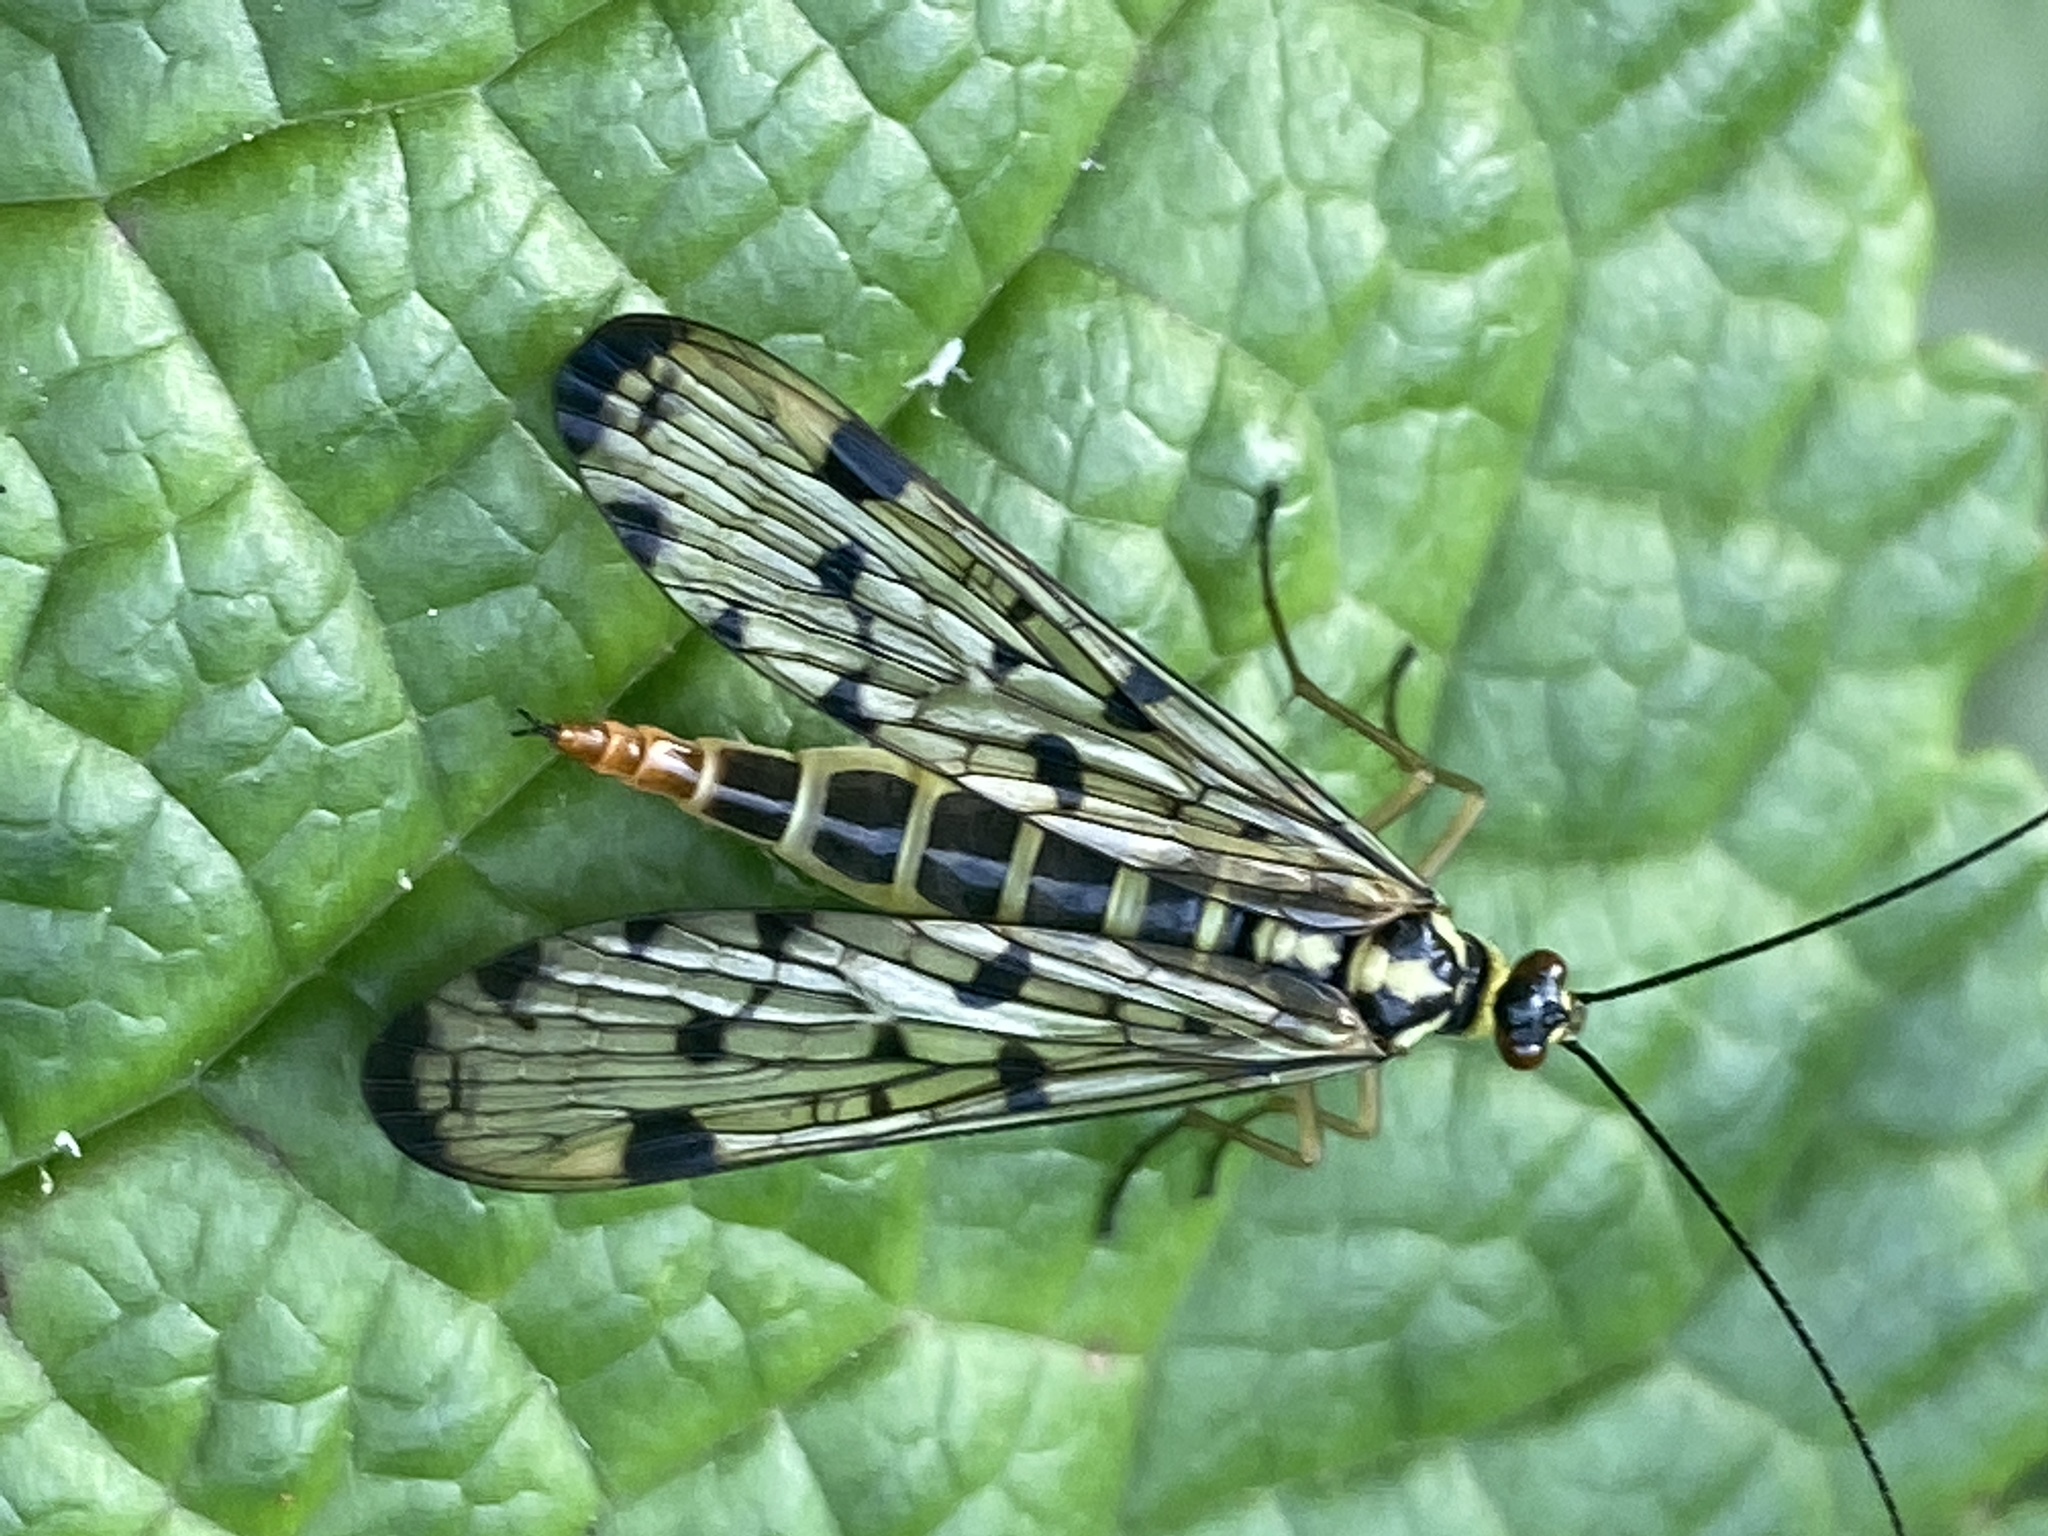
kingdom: Animalia
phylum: Arthropoda
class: Insecta
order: Mecoptera
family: Panorpidae
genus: Panorpa
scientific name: Panorpa germanica
